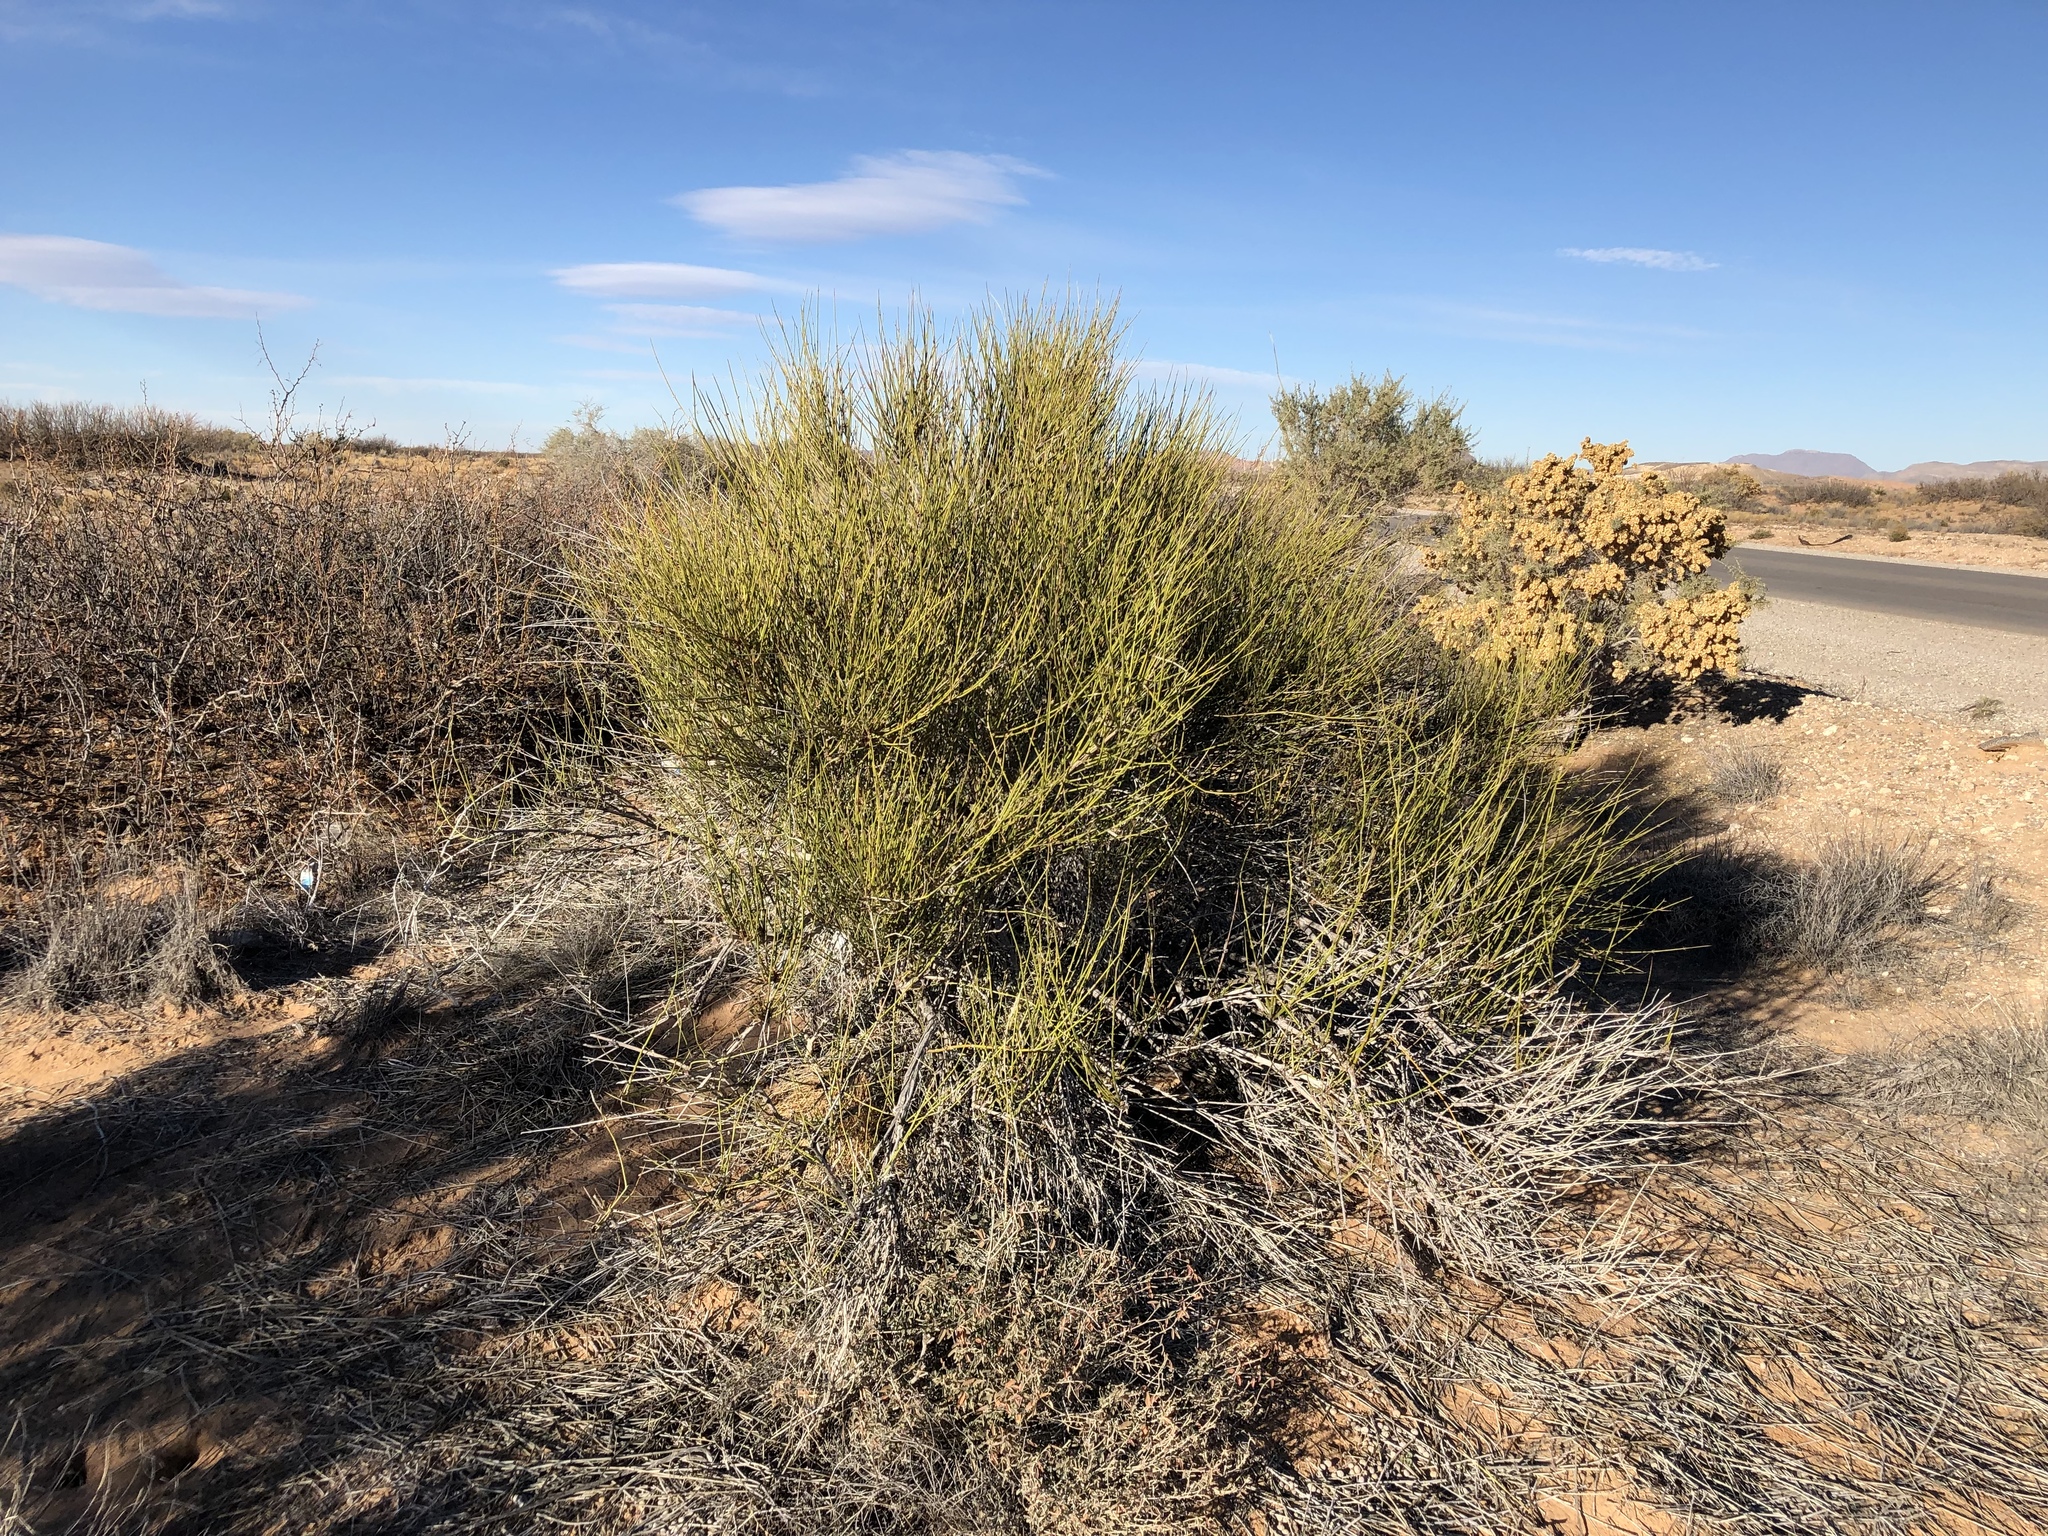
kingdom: Plantae
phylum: Tracheophyta
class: Gnetopsida
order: Ephedrales
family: Ephedraceae
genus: Ephedra
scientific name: Ephedra trifurca
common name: Mexican-tea
